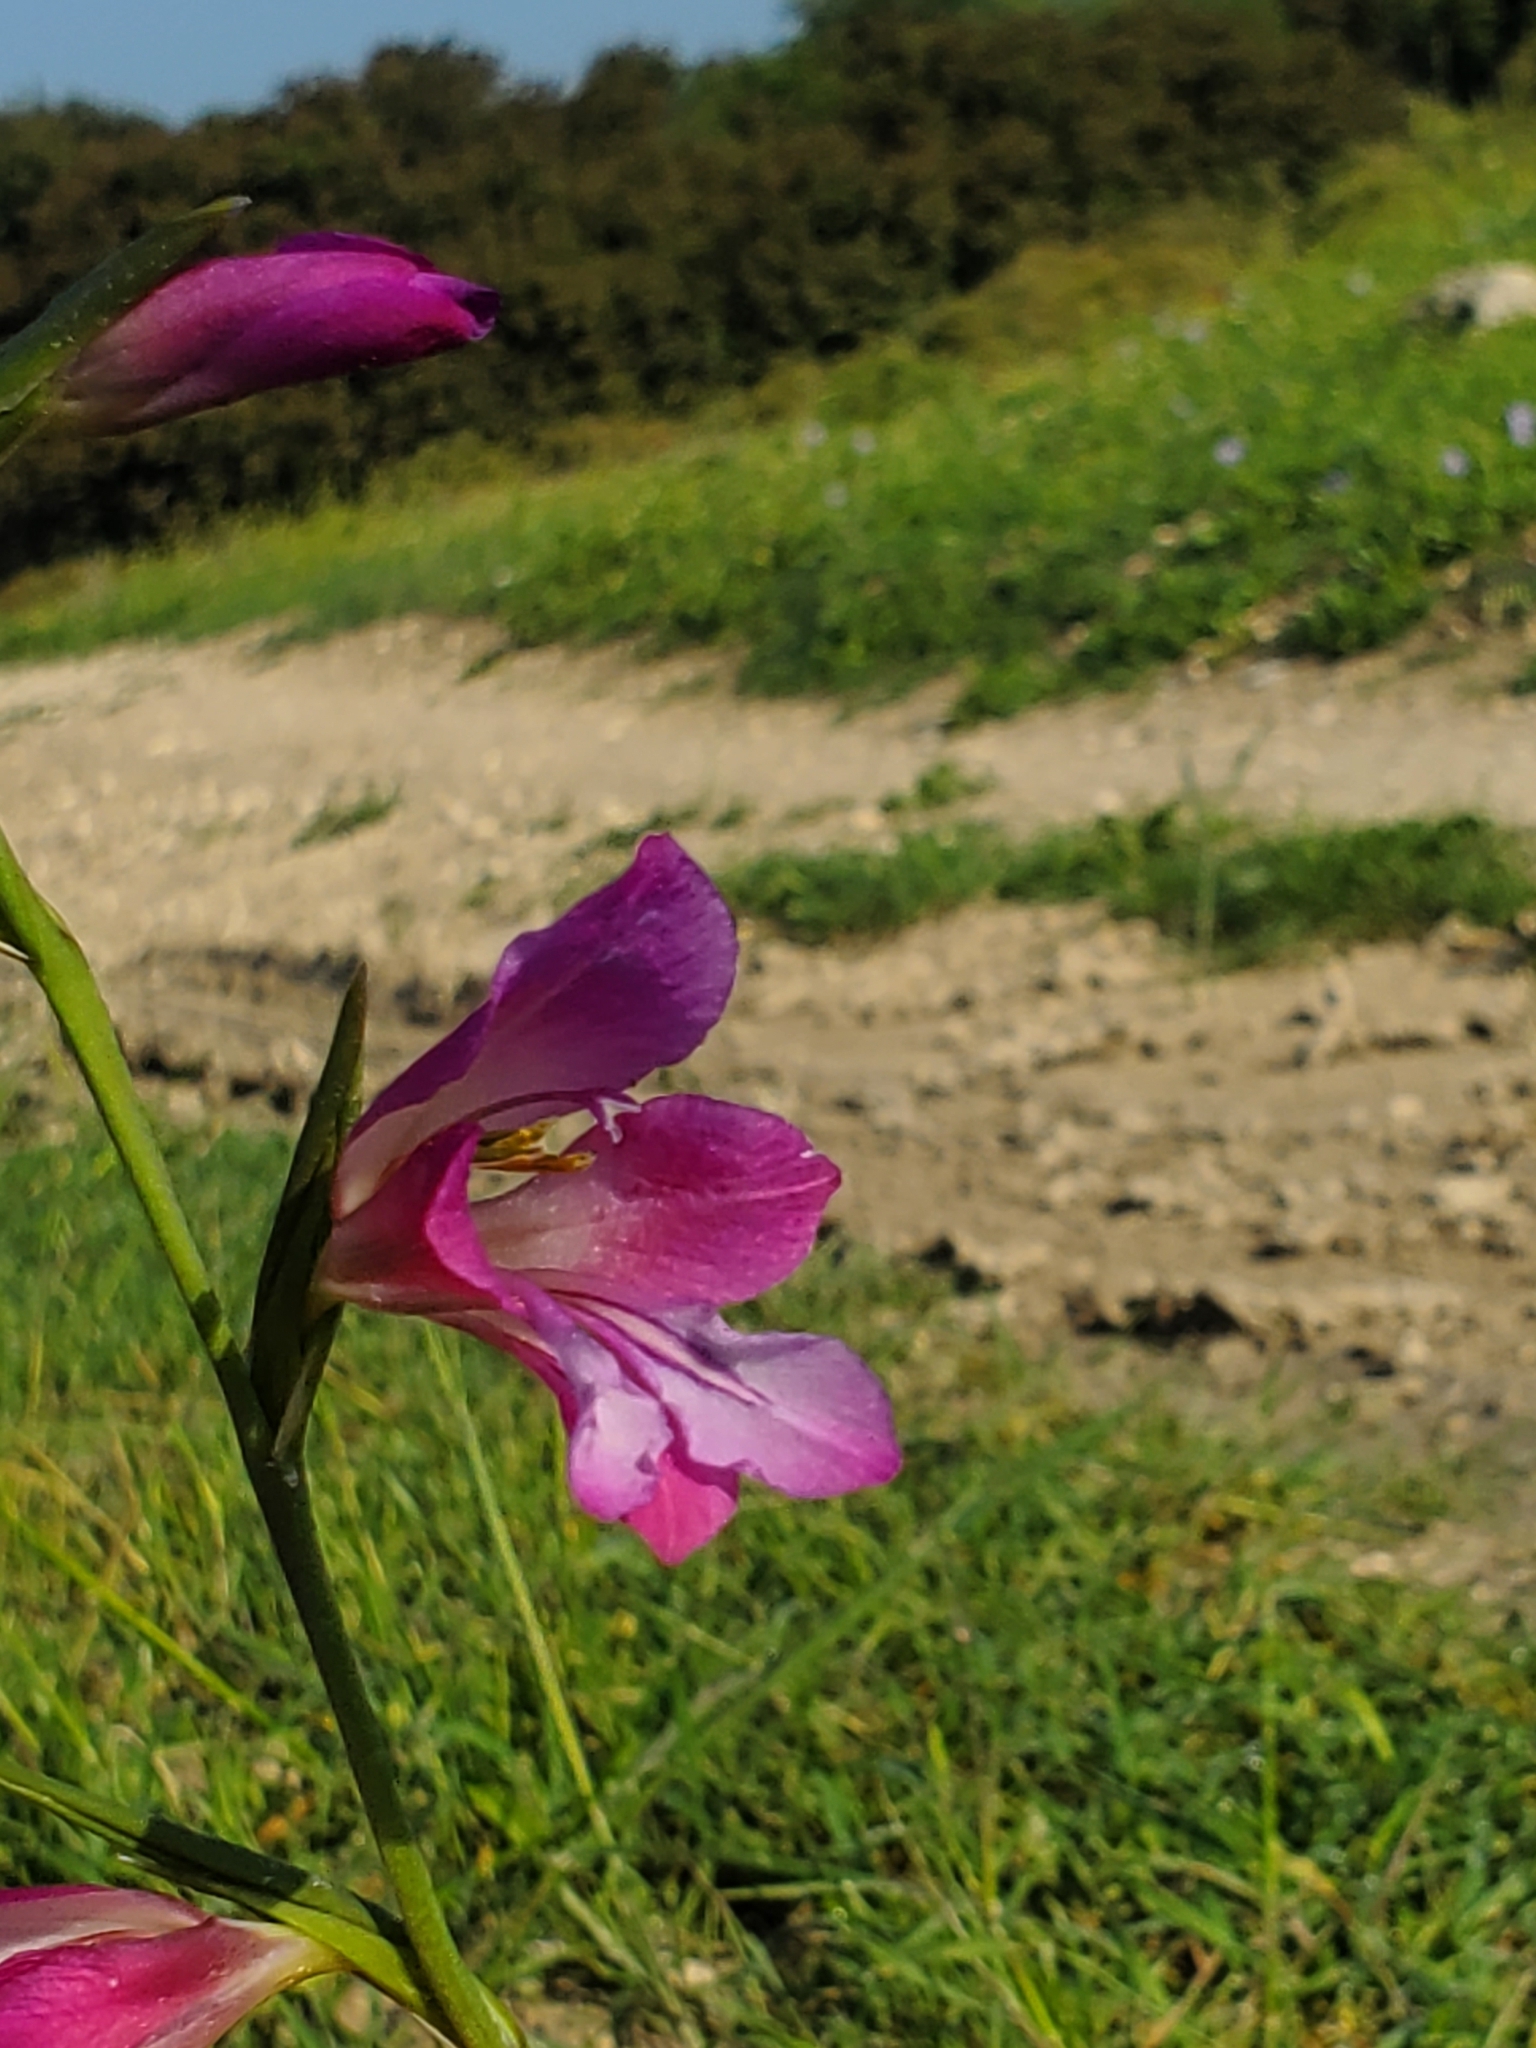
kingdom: Plantae
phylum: Tracheophyta
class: Liliopsida
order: Asparagales
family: Iridaceae
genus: Gladiolus
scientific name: Gladiolus italicus
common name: Field gladiolus
